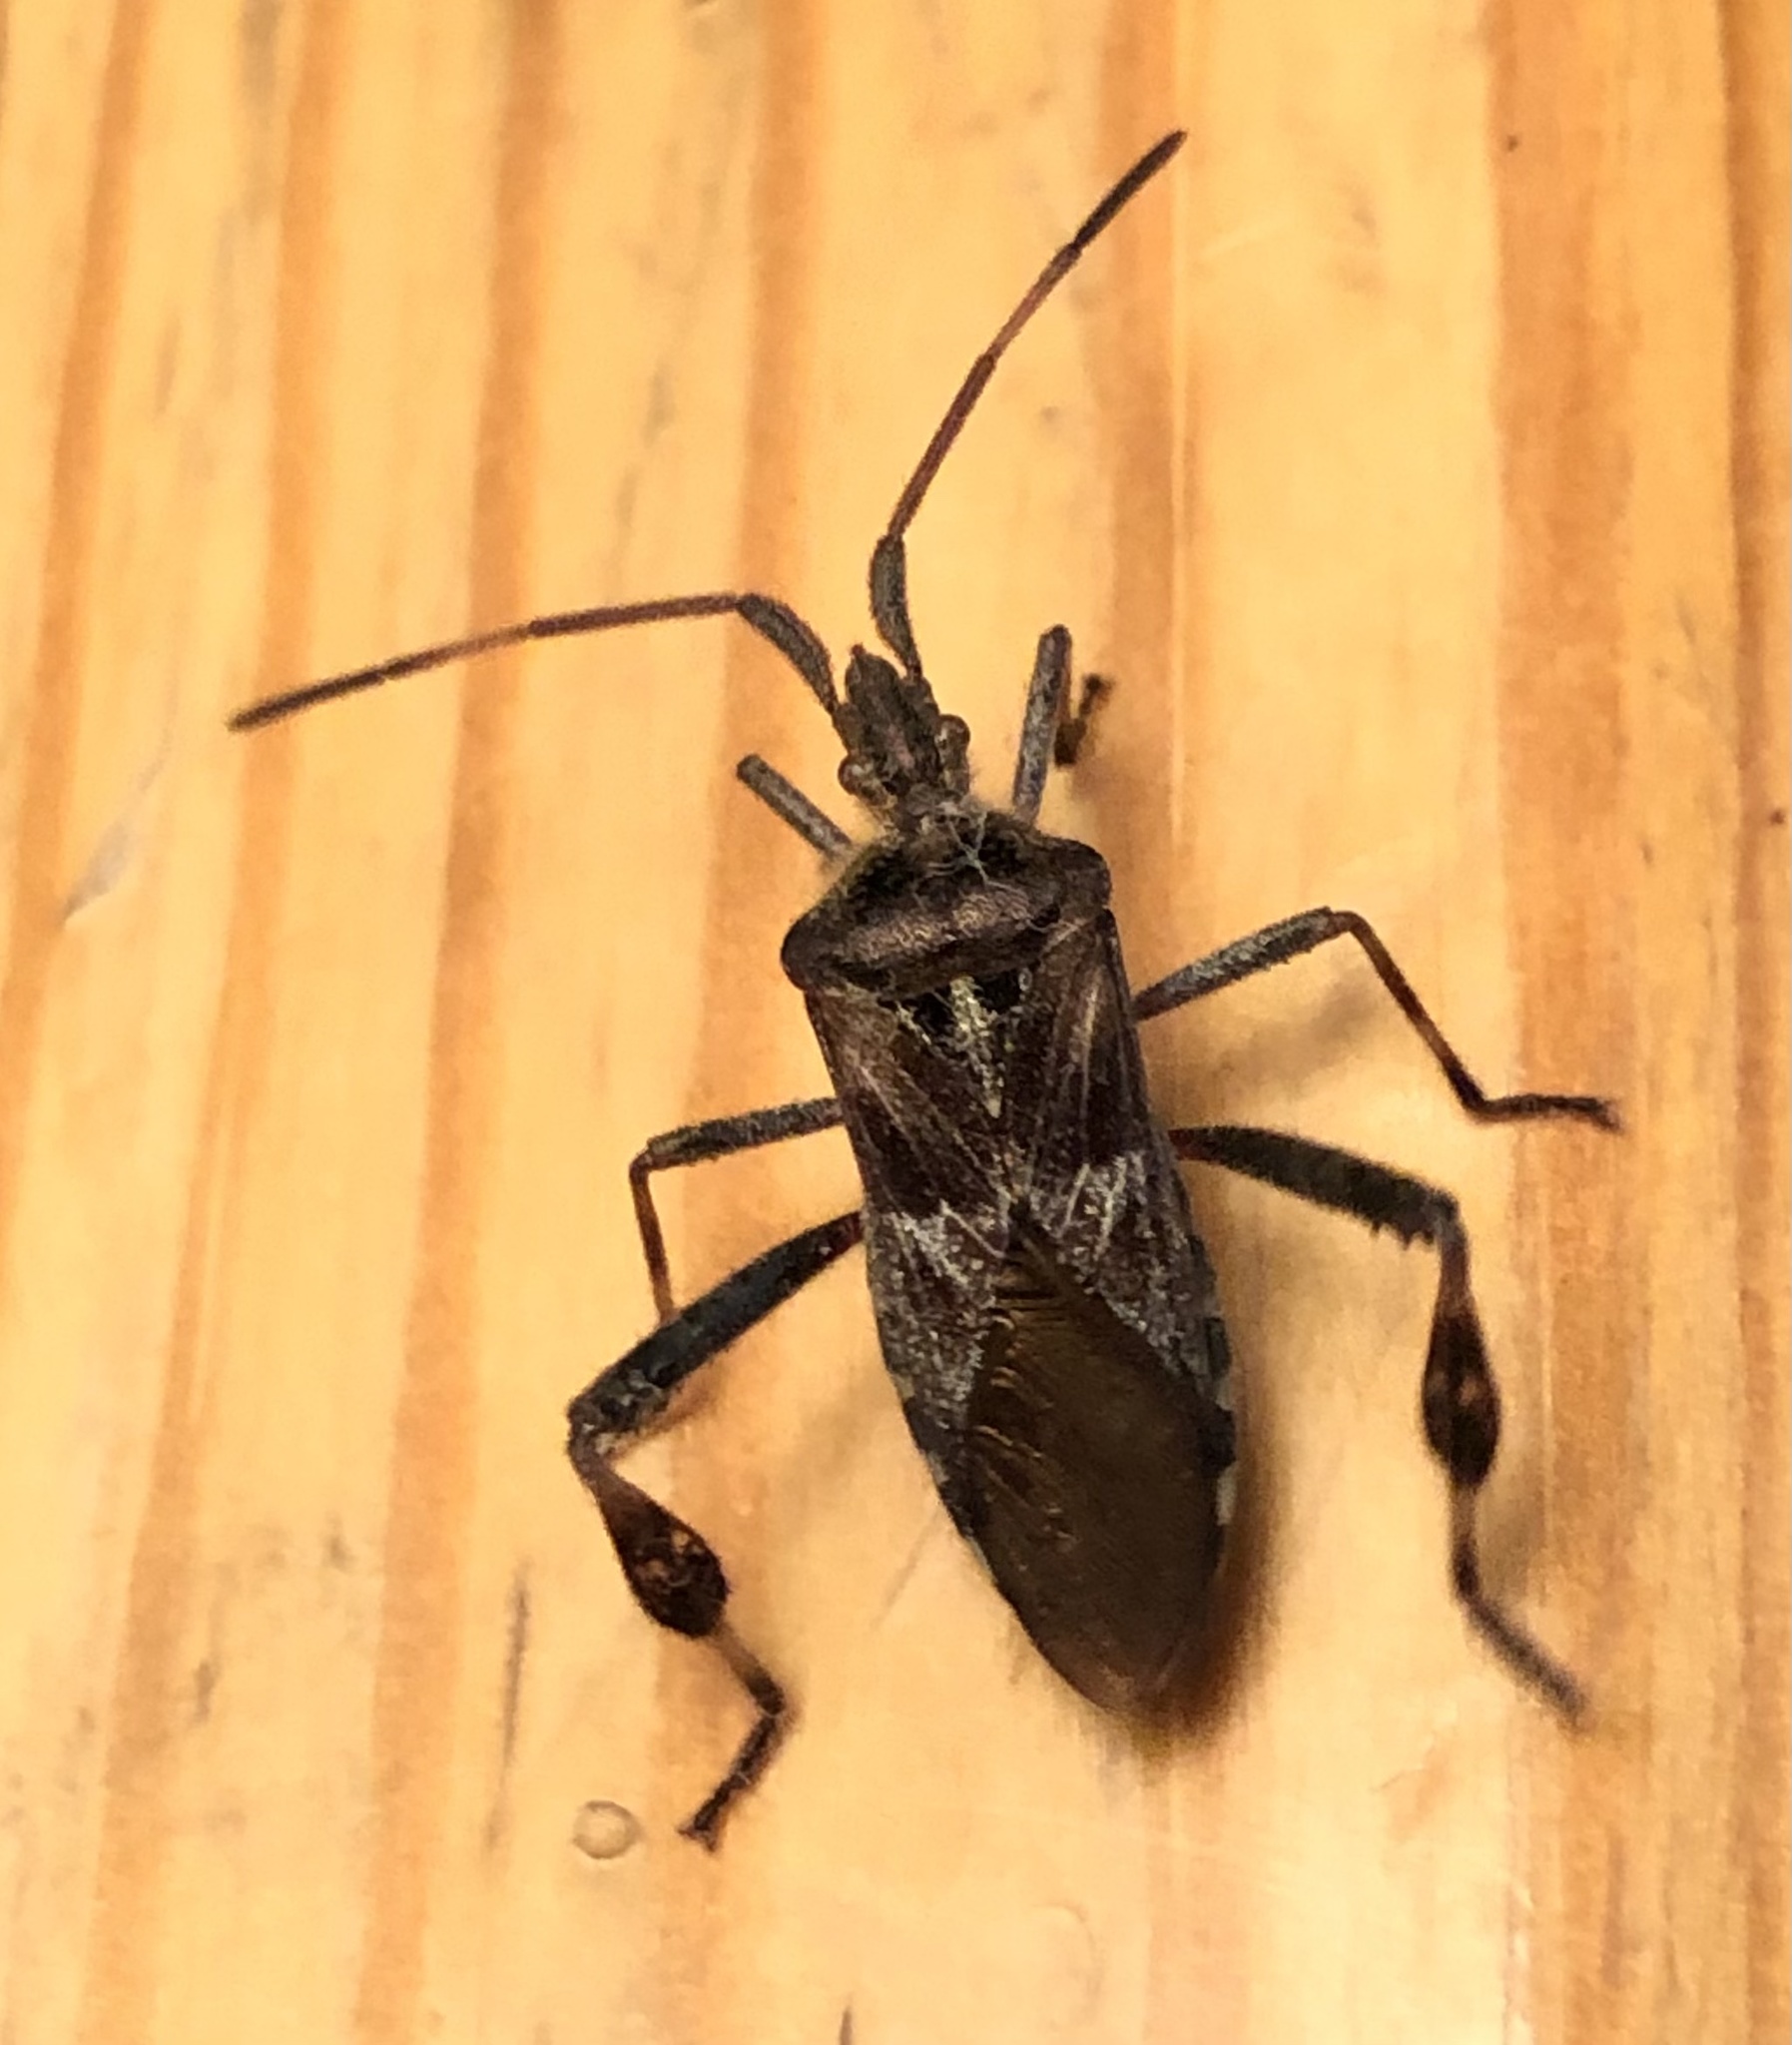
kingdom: Animalia
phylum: Arthropoda
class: Insecta
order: Hemiptera
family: Coreidae
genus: Leptoglossus
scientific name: Leptoglossus occidentalis
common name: Western conifer-seed bug
